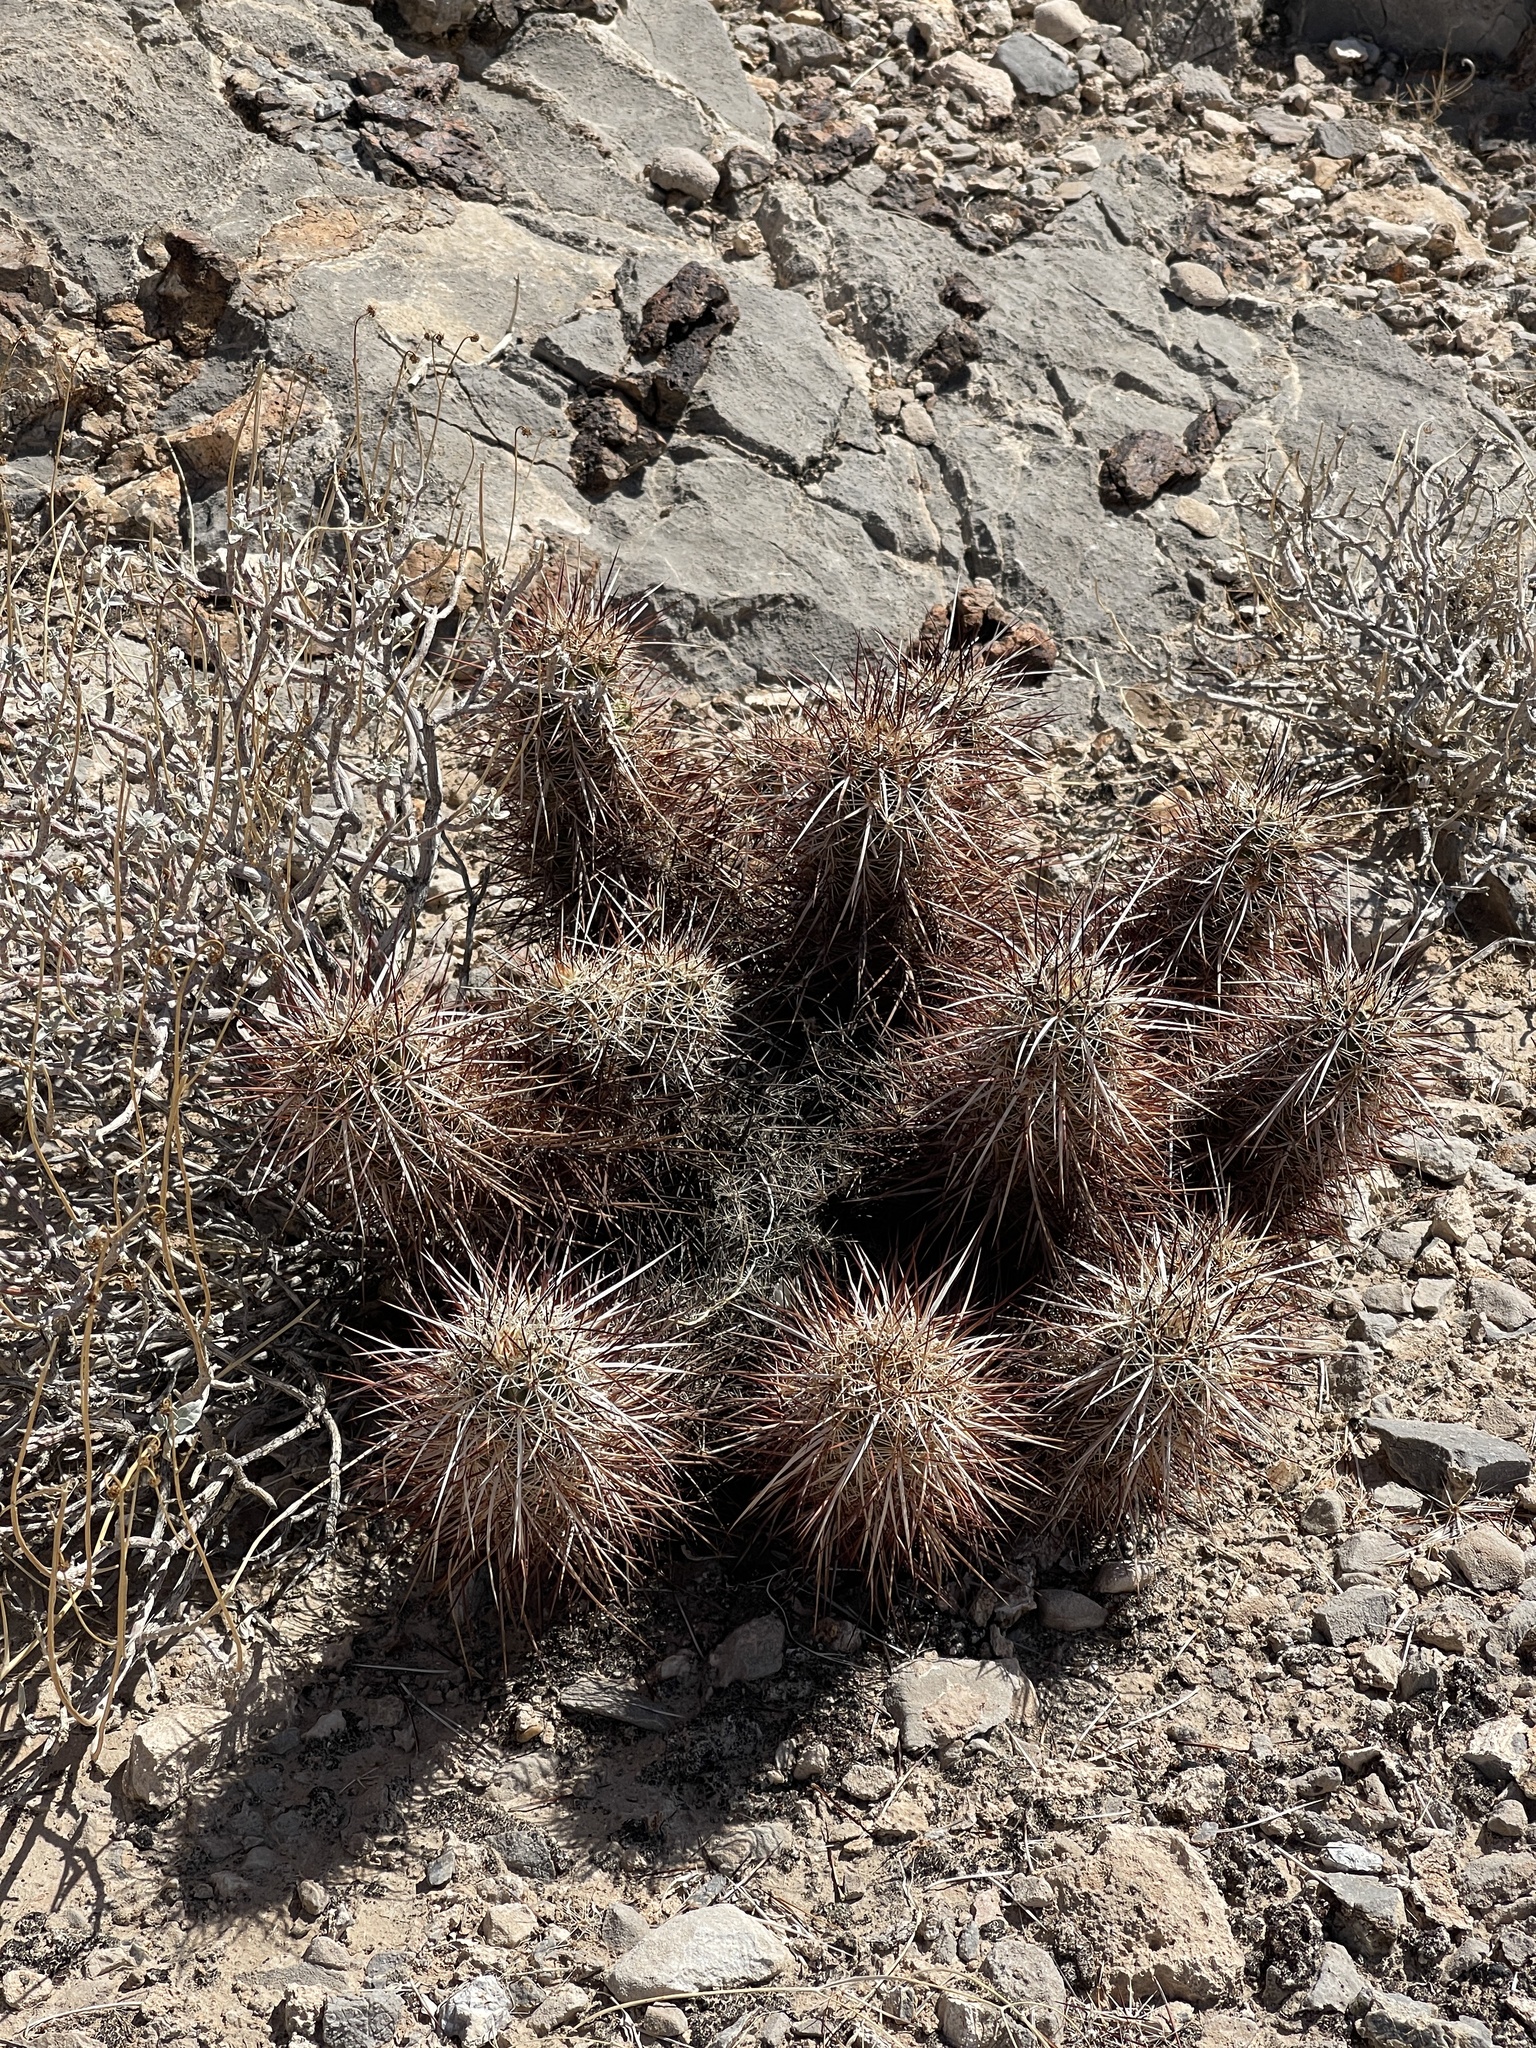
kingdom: Plantae
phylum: Tracheophyta
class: Magnoliopsida
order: Caryophyllales
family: Cactaceae
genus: Echinocereus
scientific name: Echinocereus engelmannii
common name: Engelmann's hedgehog cactus
